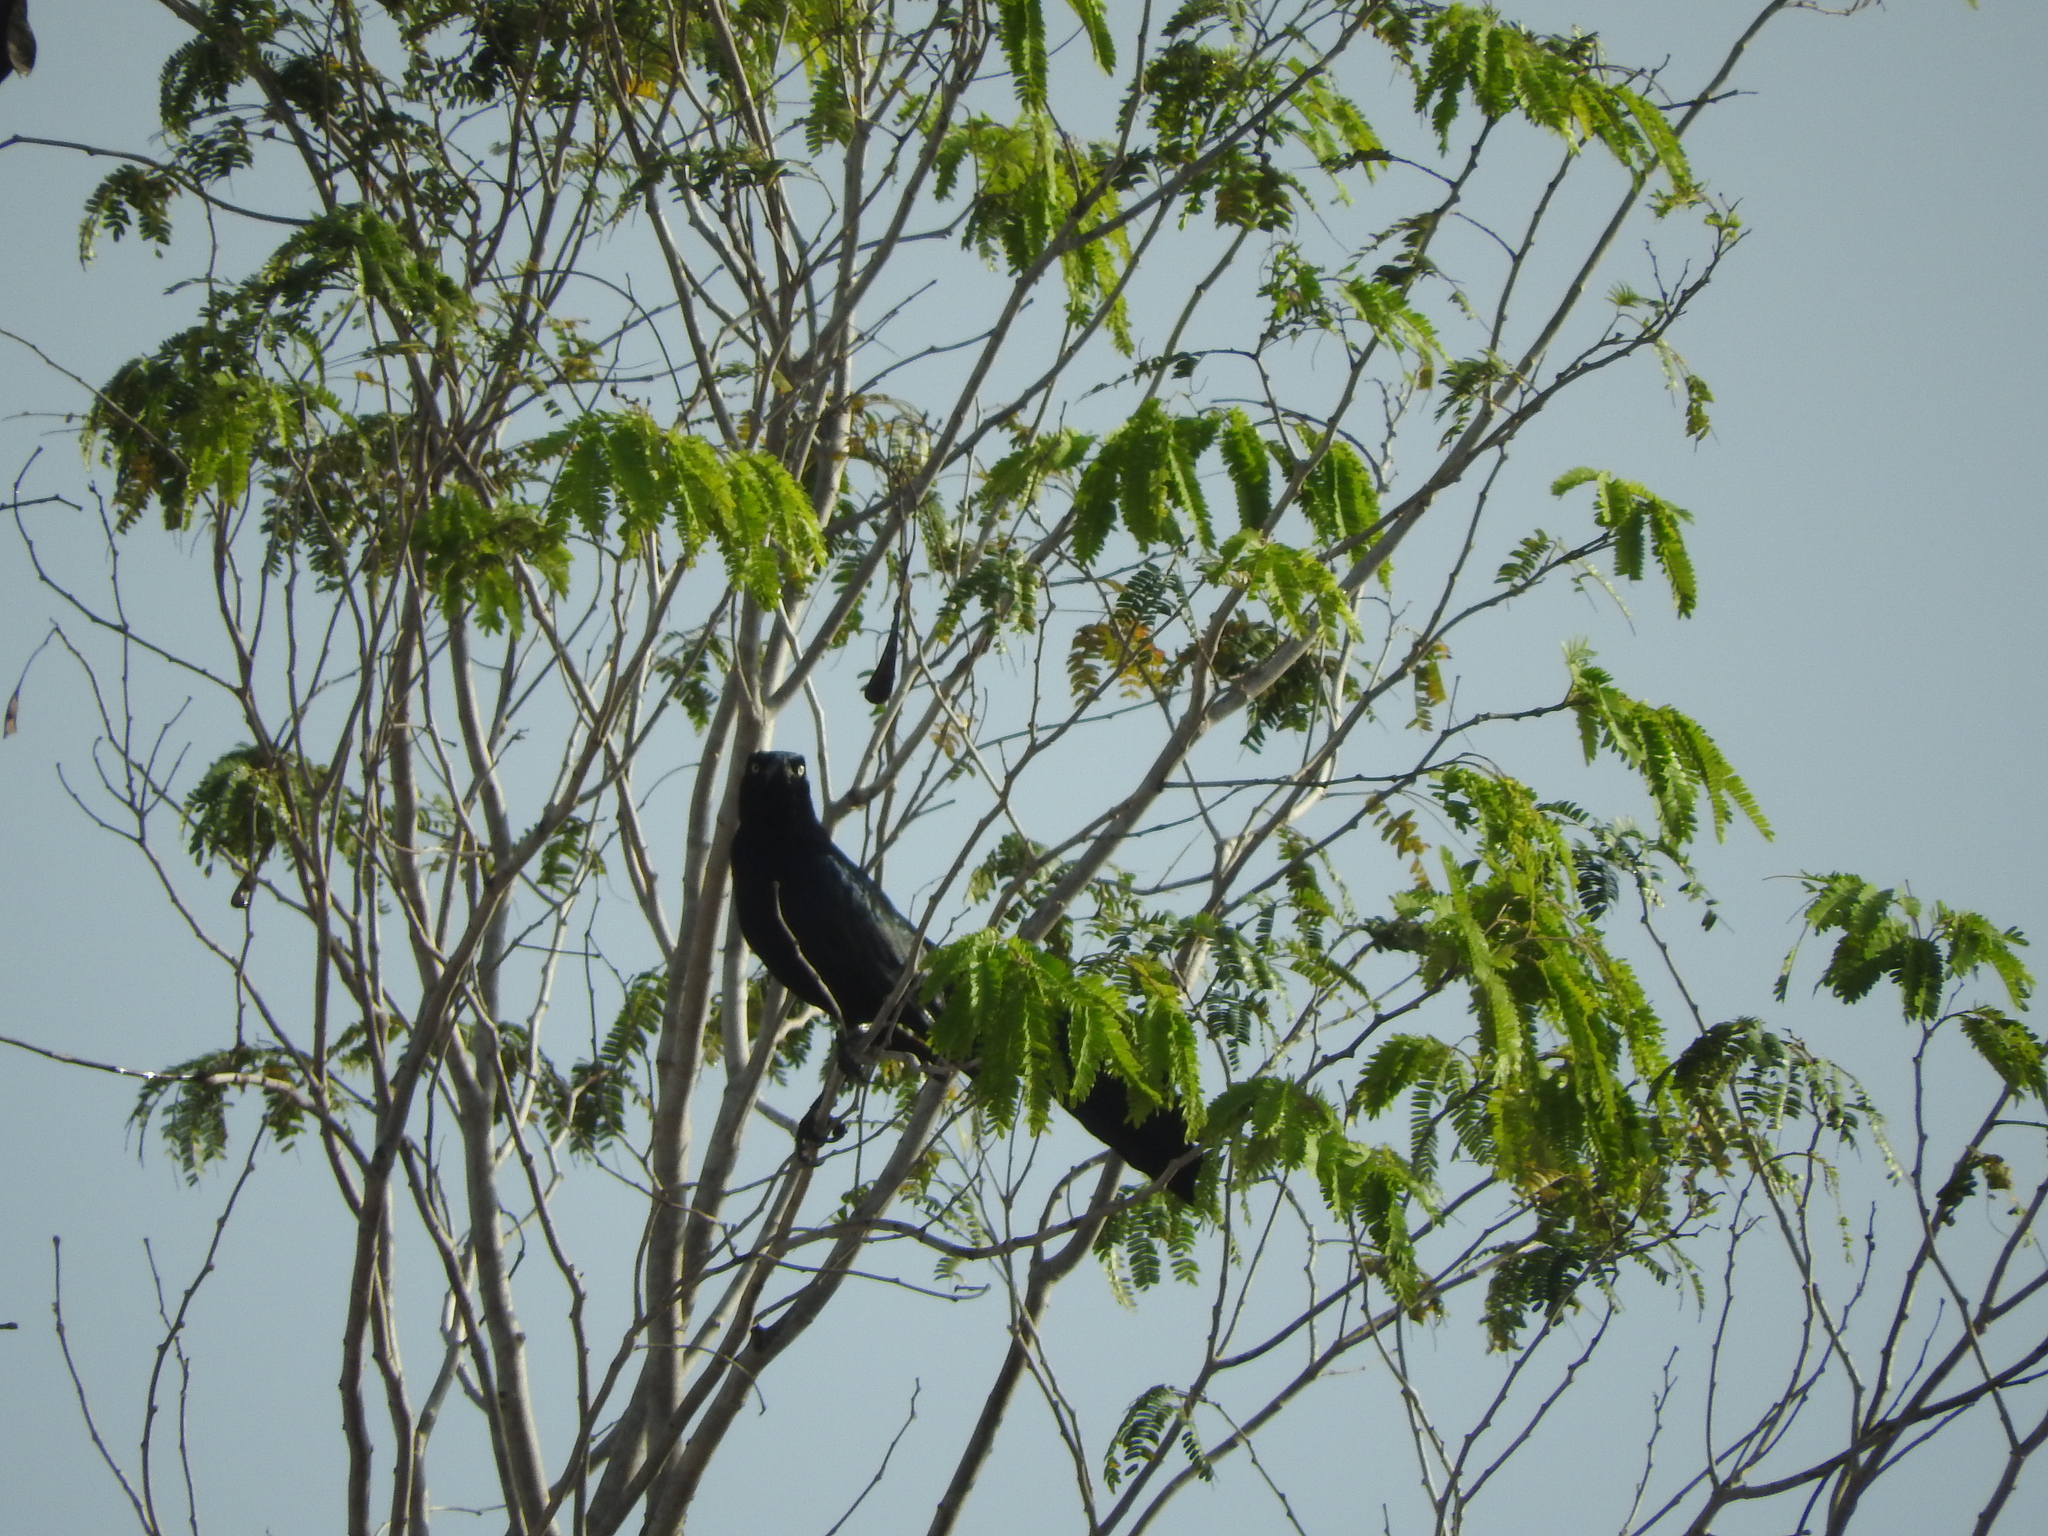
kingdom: Animalia
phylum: Chordata
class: Aves
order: Passeriformes
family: Icteridae
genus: Quiscalus
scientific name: Quiscalus mexicanus
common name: Great-tailed grackle
